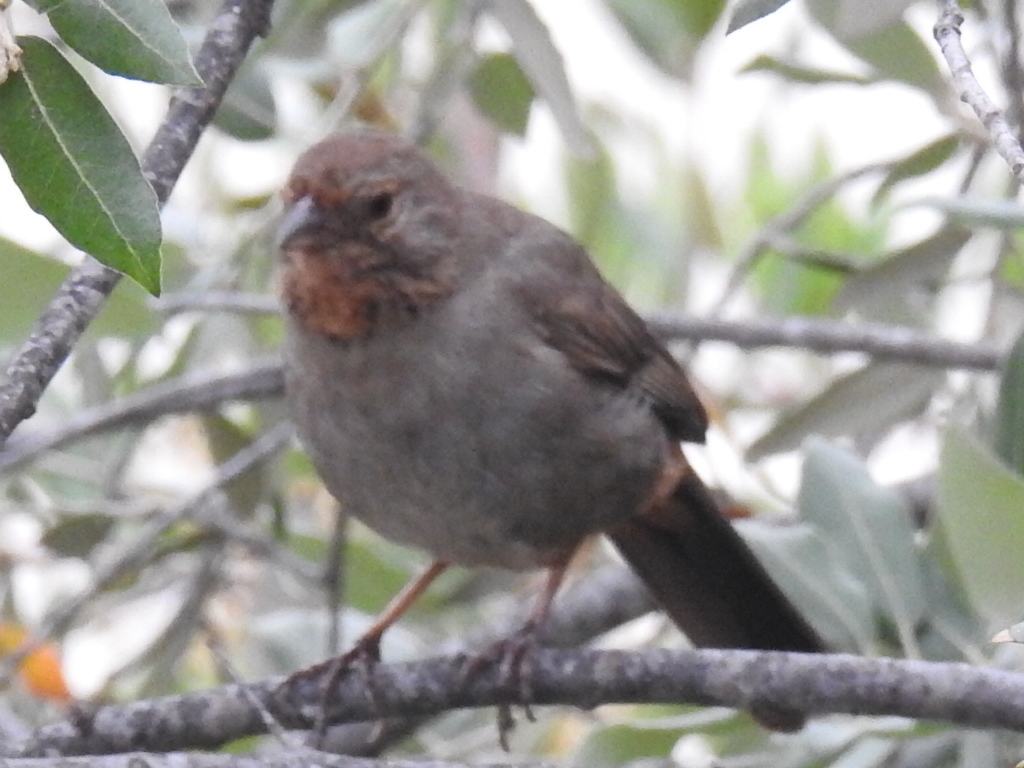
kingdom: Animalia
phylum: Chordata
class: Aves
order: Passeriformes
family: Passerellidae
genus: Melozone
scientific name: Melozone crissalis
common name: California towhee
